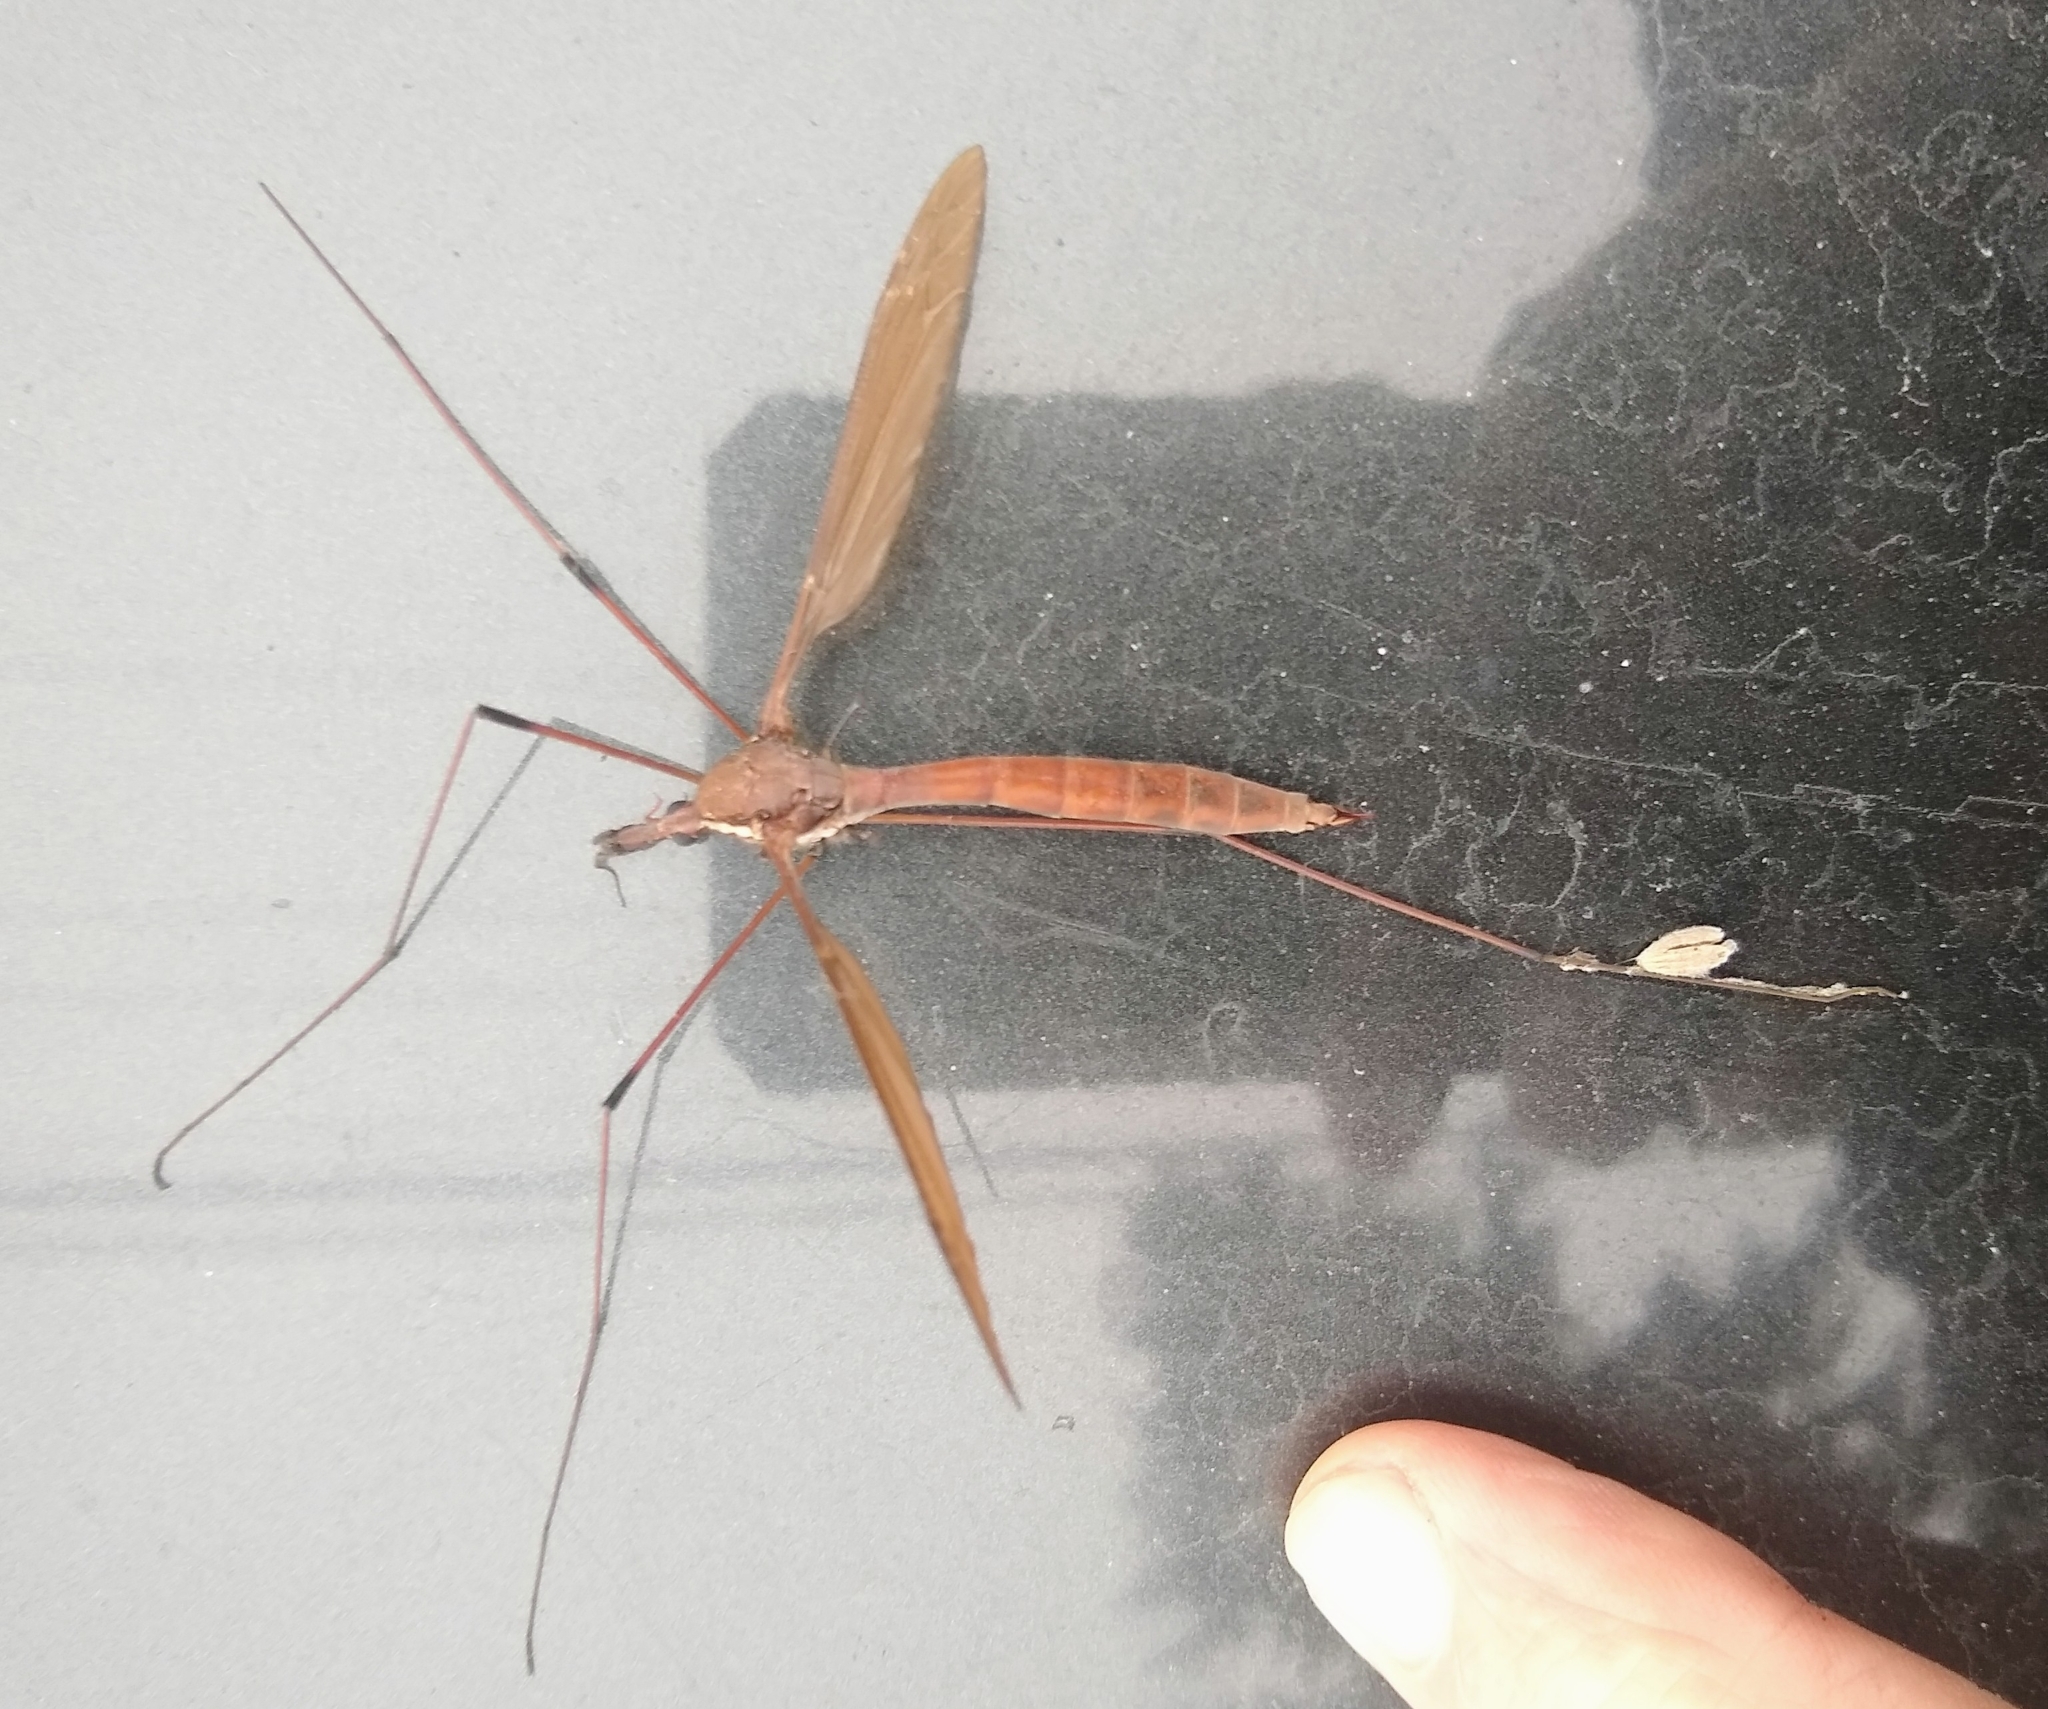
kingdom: Animalia
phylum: Arthropoda
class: Insecta
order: Diptera
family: Tipulidae
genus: Holorusia
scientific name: Holorusia hespera
